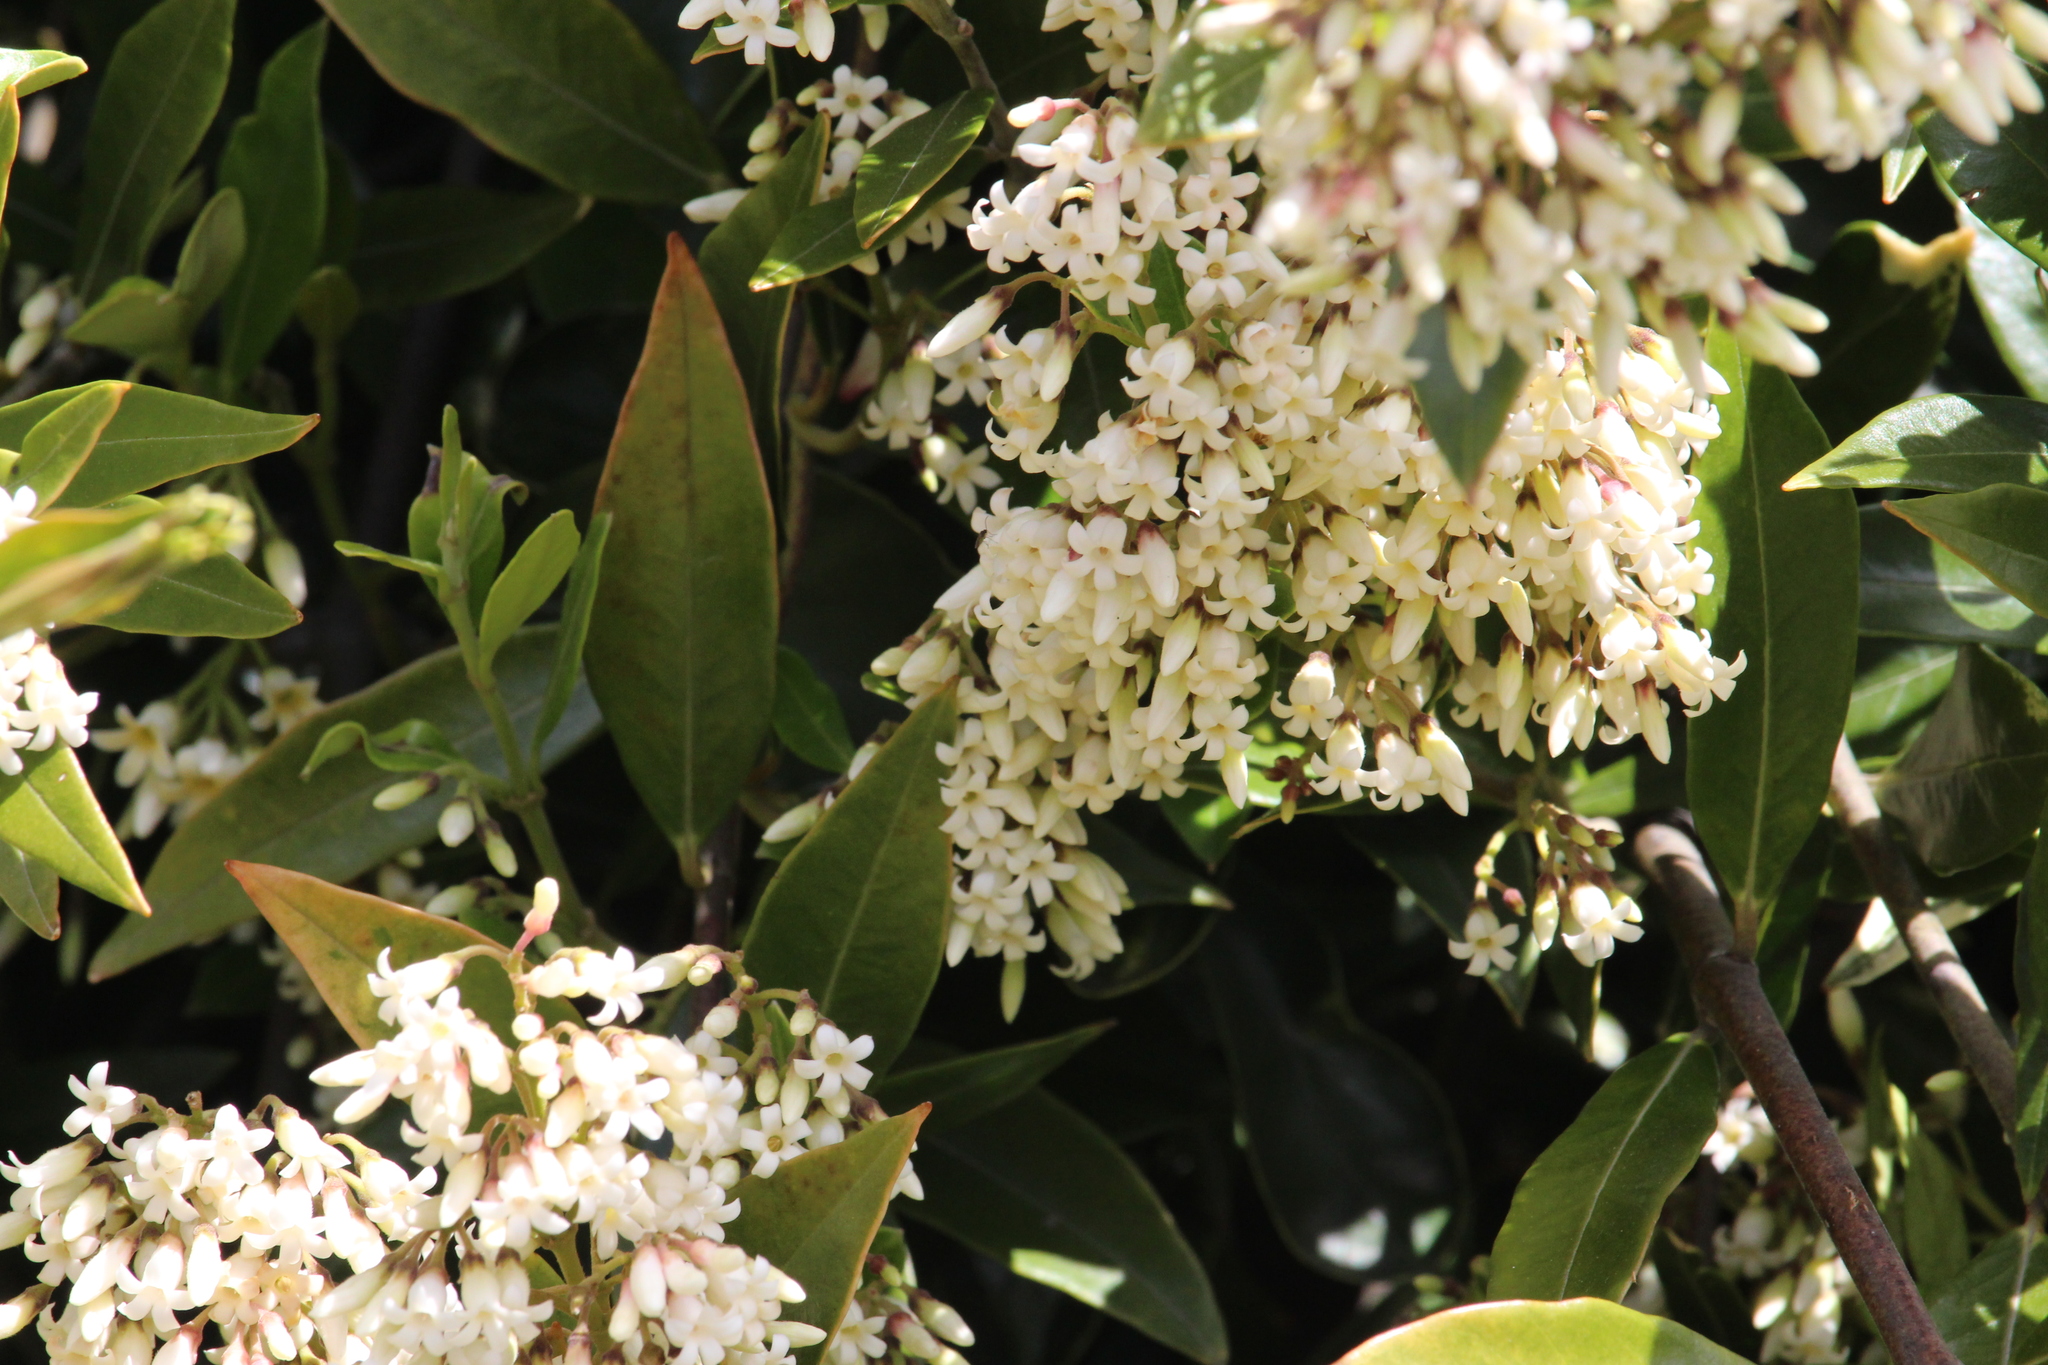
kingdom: Plantae
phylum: Tracheophyta
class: Magnoliopsida
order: Gentianales
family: Apocynaceae
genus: Parsonsia
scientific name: Parsonsia heterophylla
